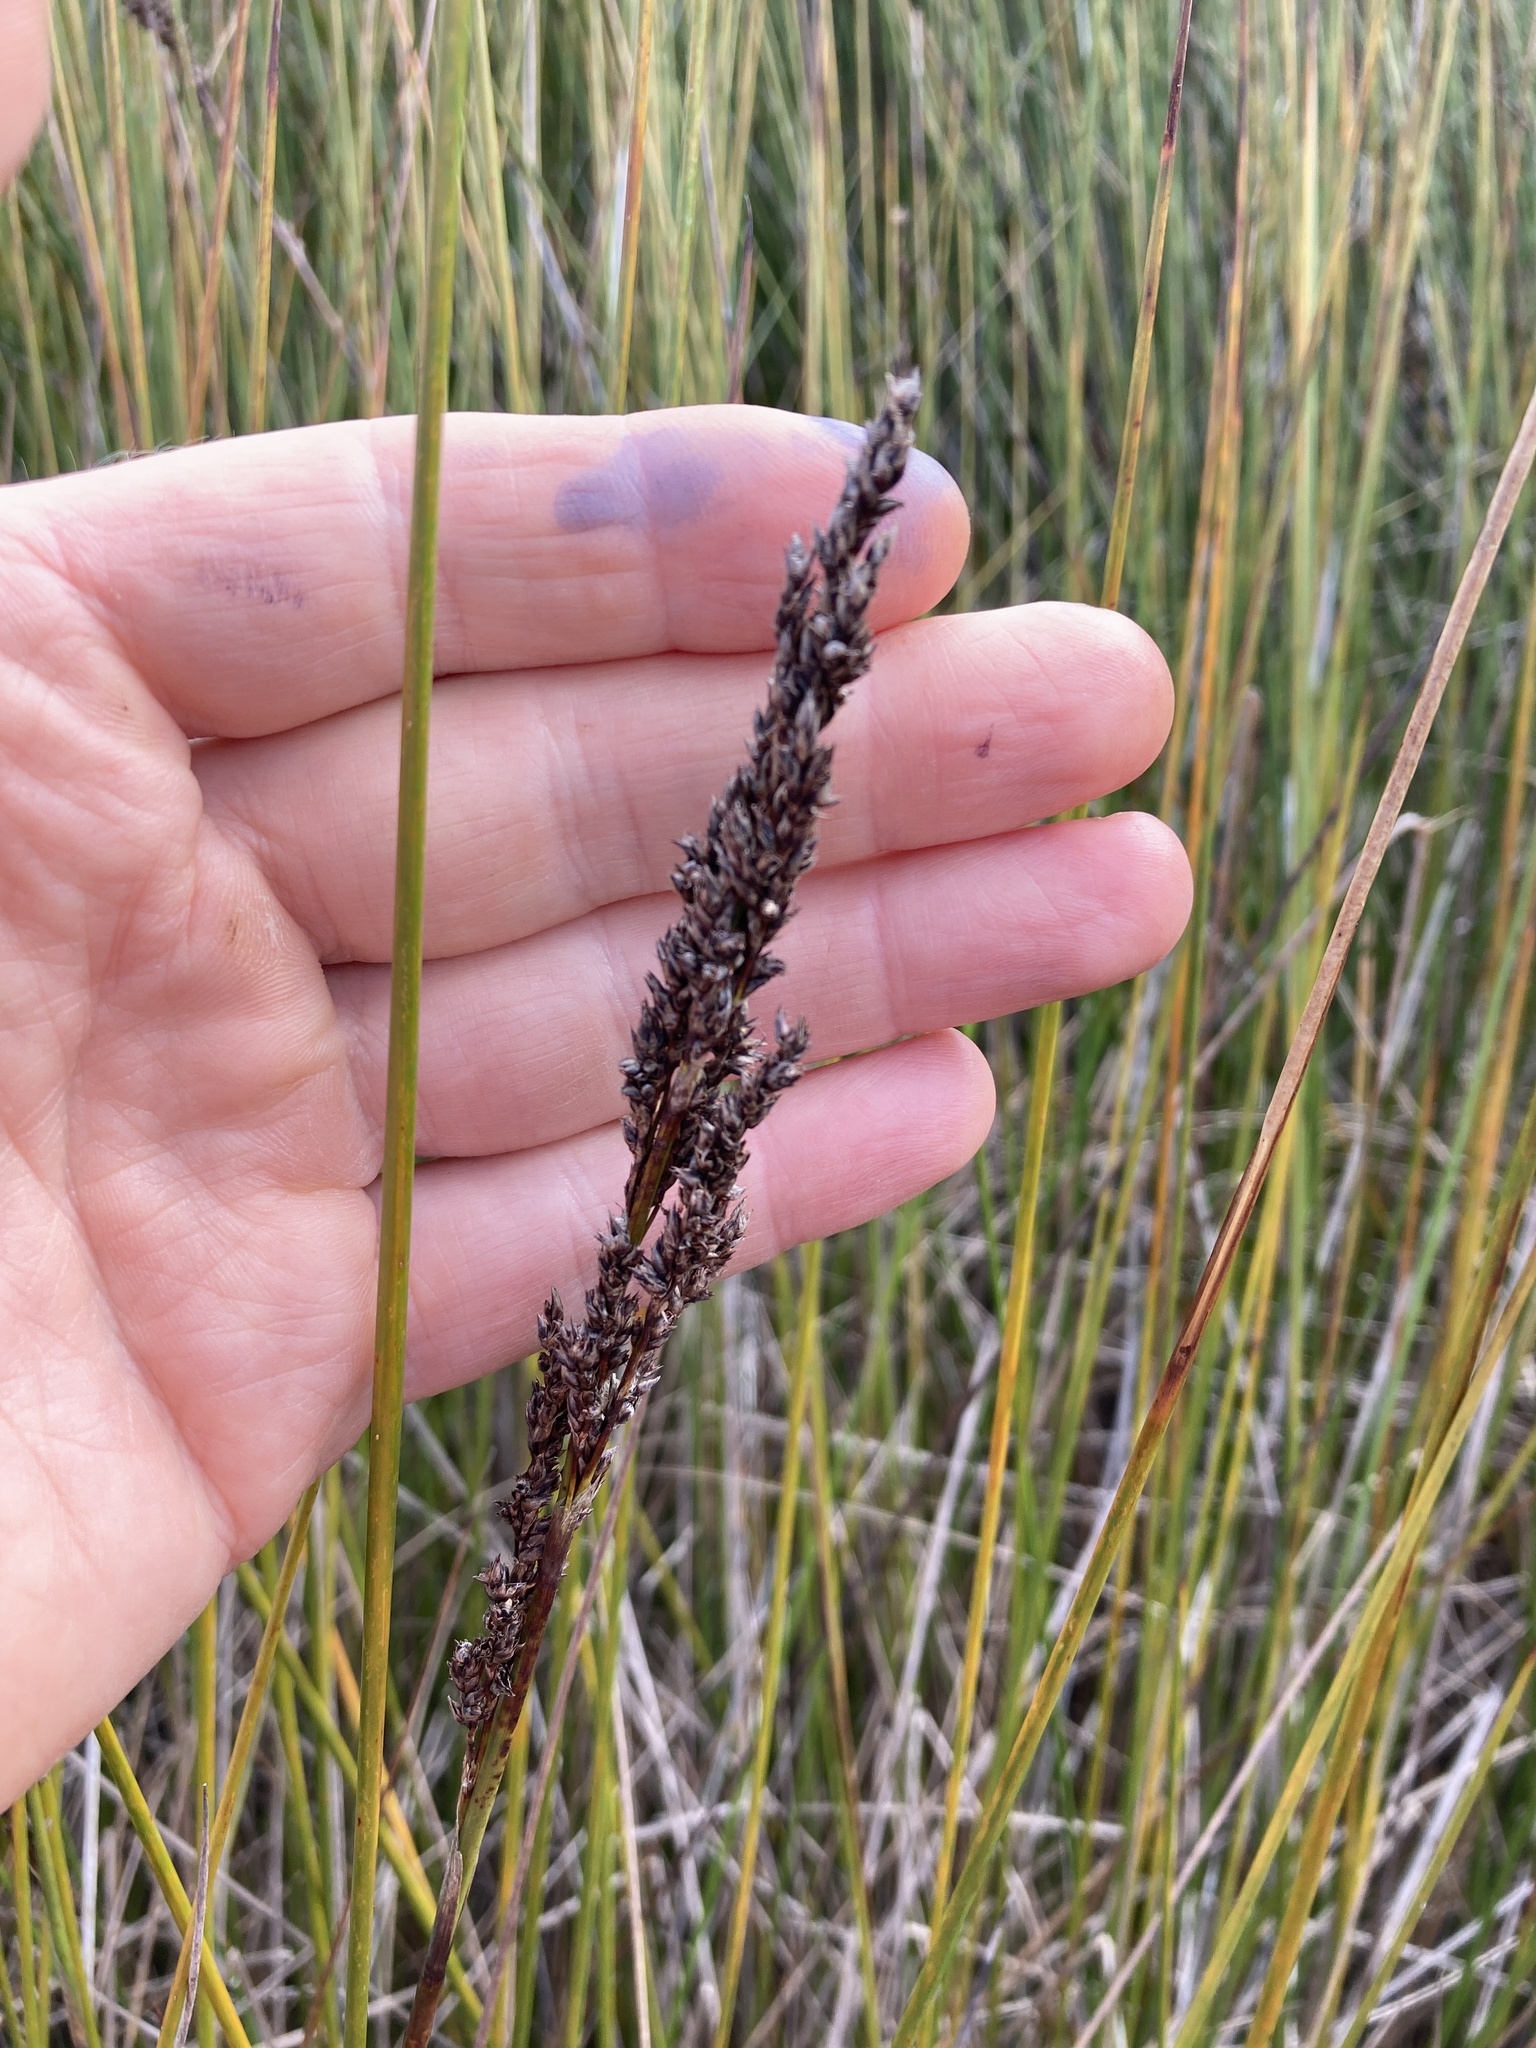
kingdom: Plantae
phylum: Tracheophyta
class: Liliopsida
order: Poales
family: Cyperaceae
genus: Machaerina
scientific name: Machaerina teretifolia
